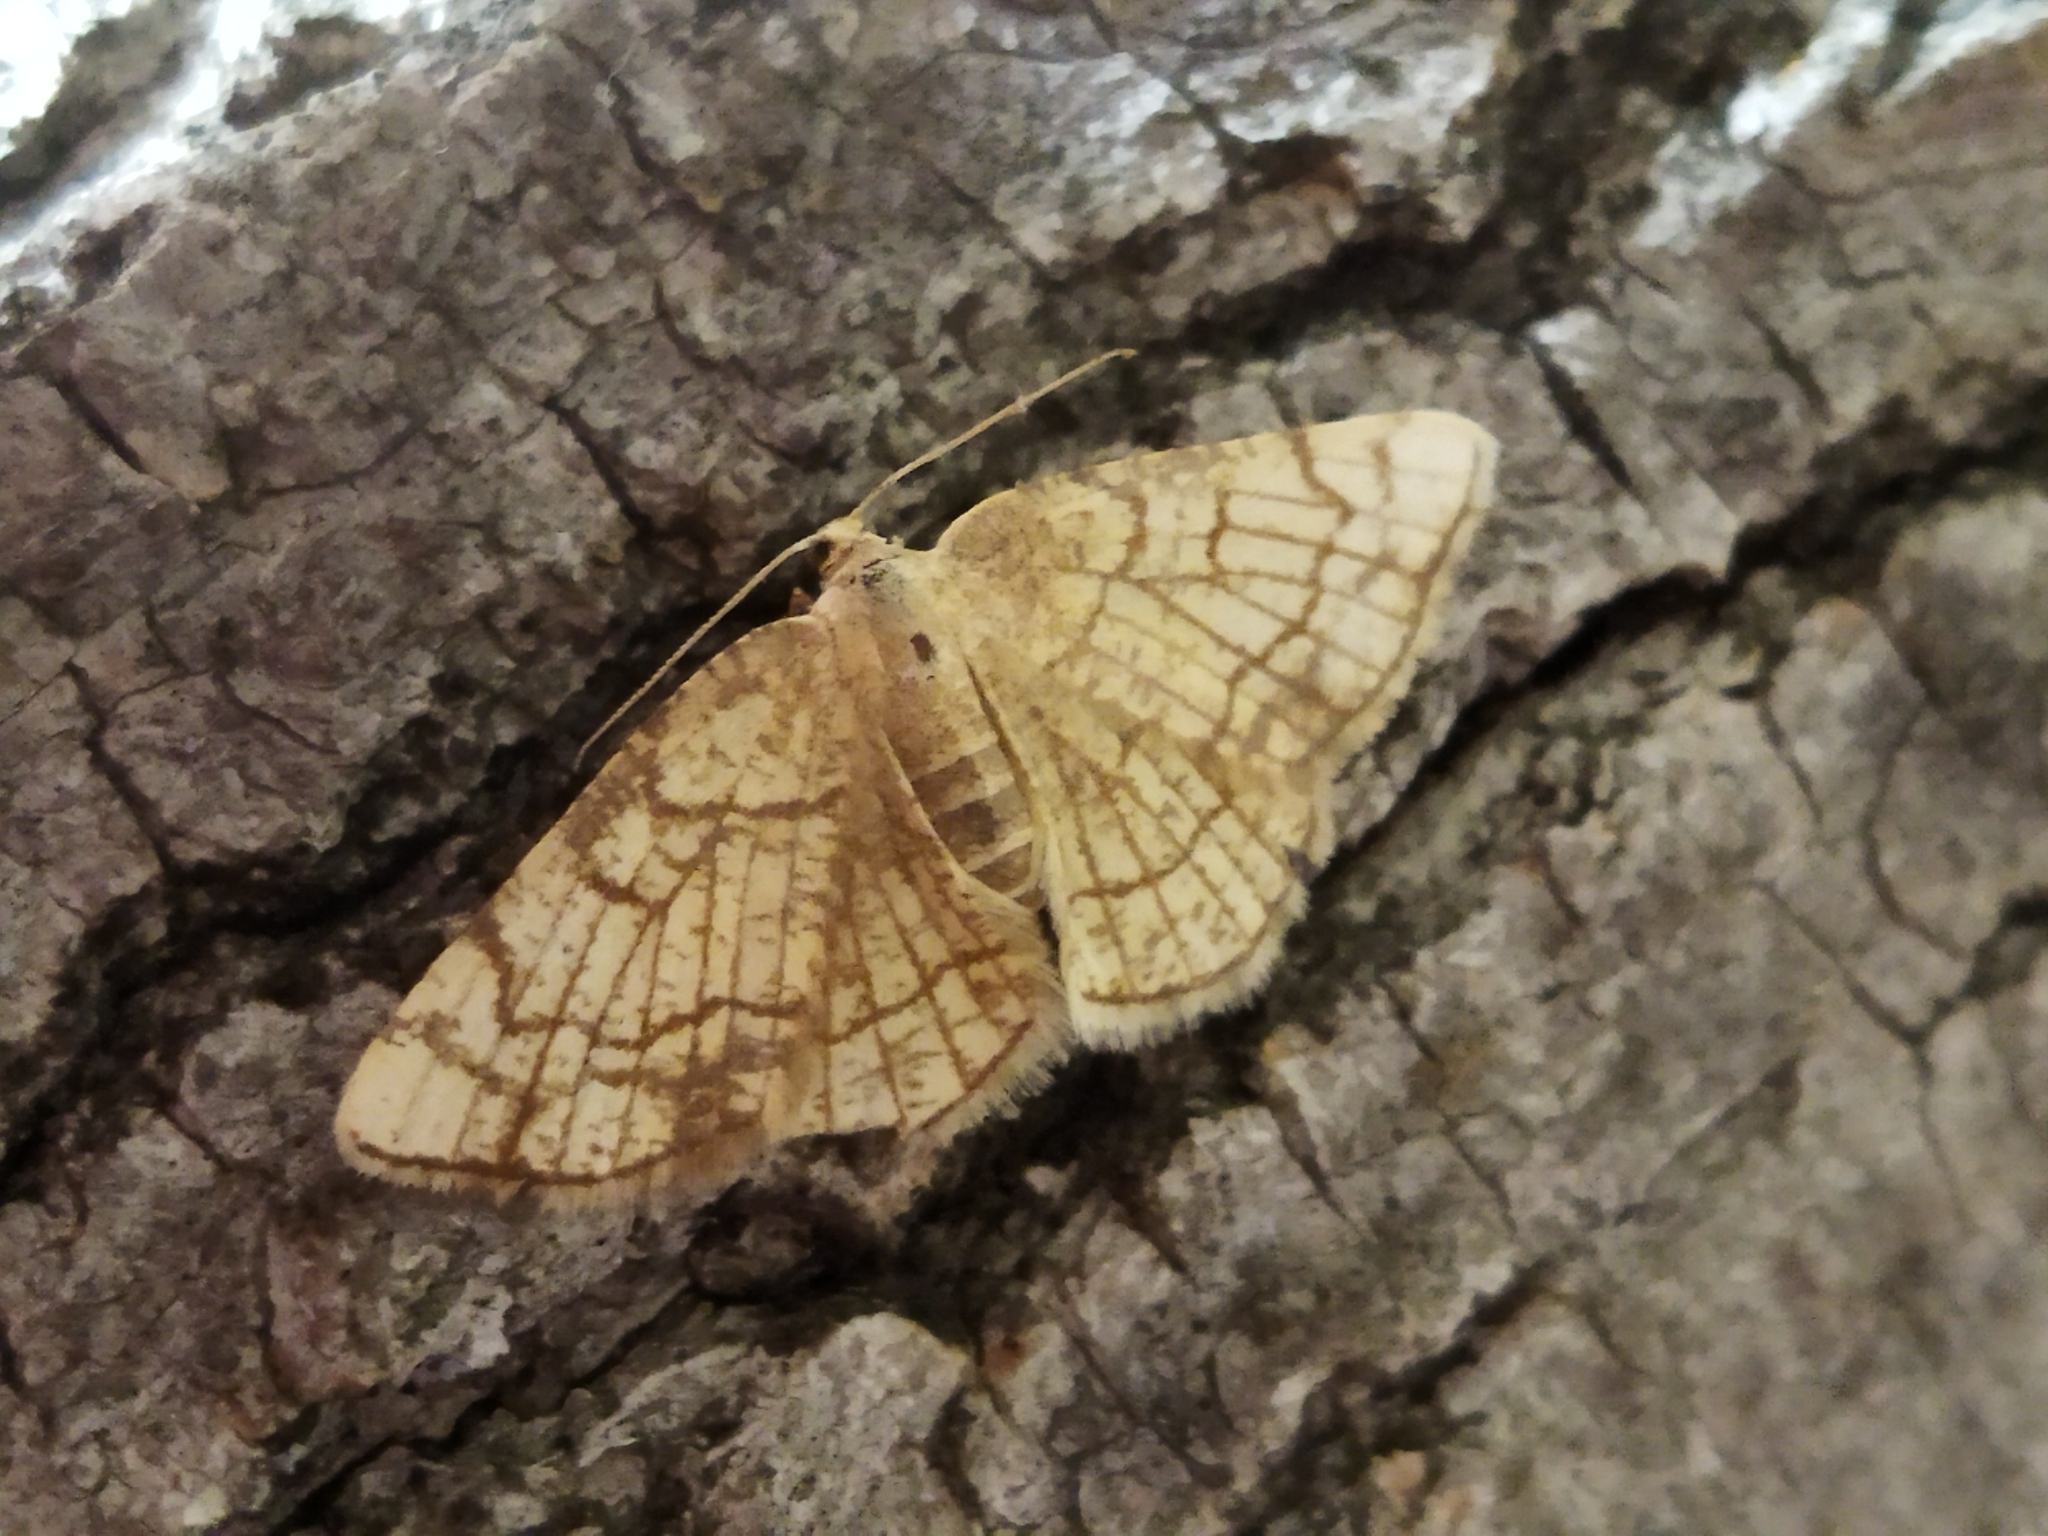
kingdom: Animalia
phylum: Arthropoda
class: Insecta
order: Lepidoptera
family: Geometridae
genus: Stegania
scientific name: Stegania dilectaria
